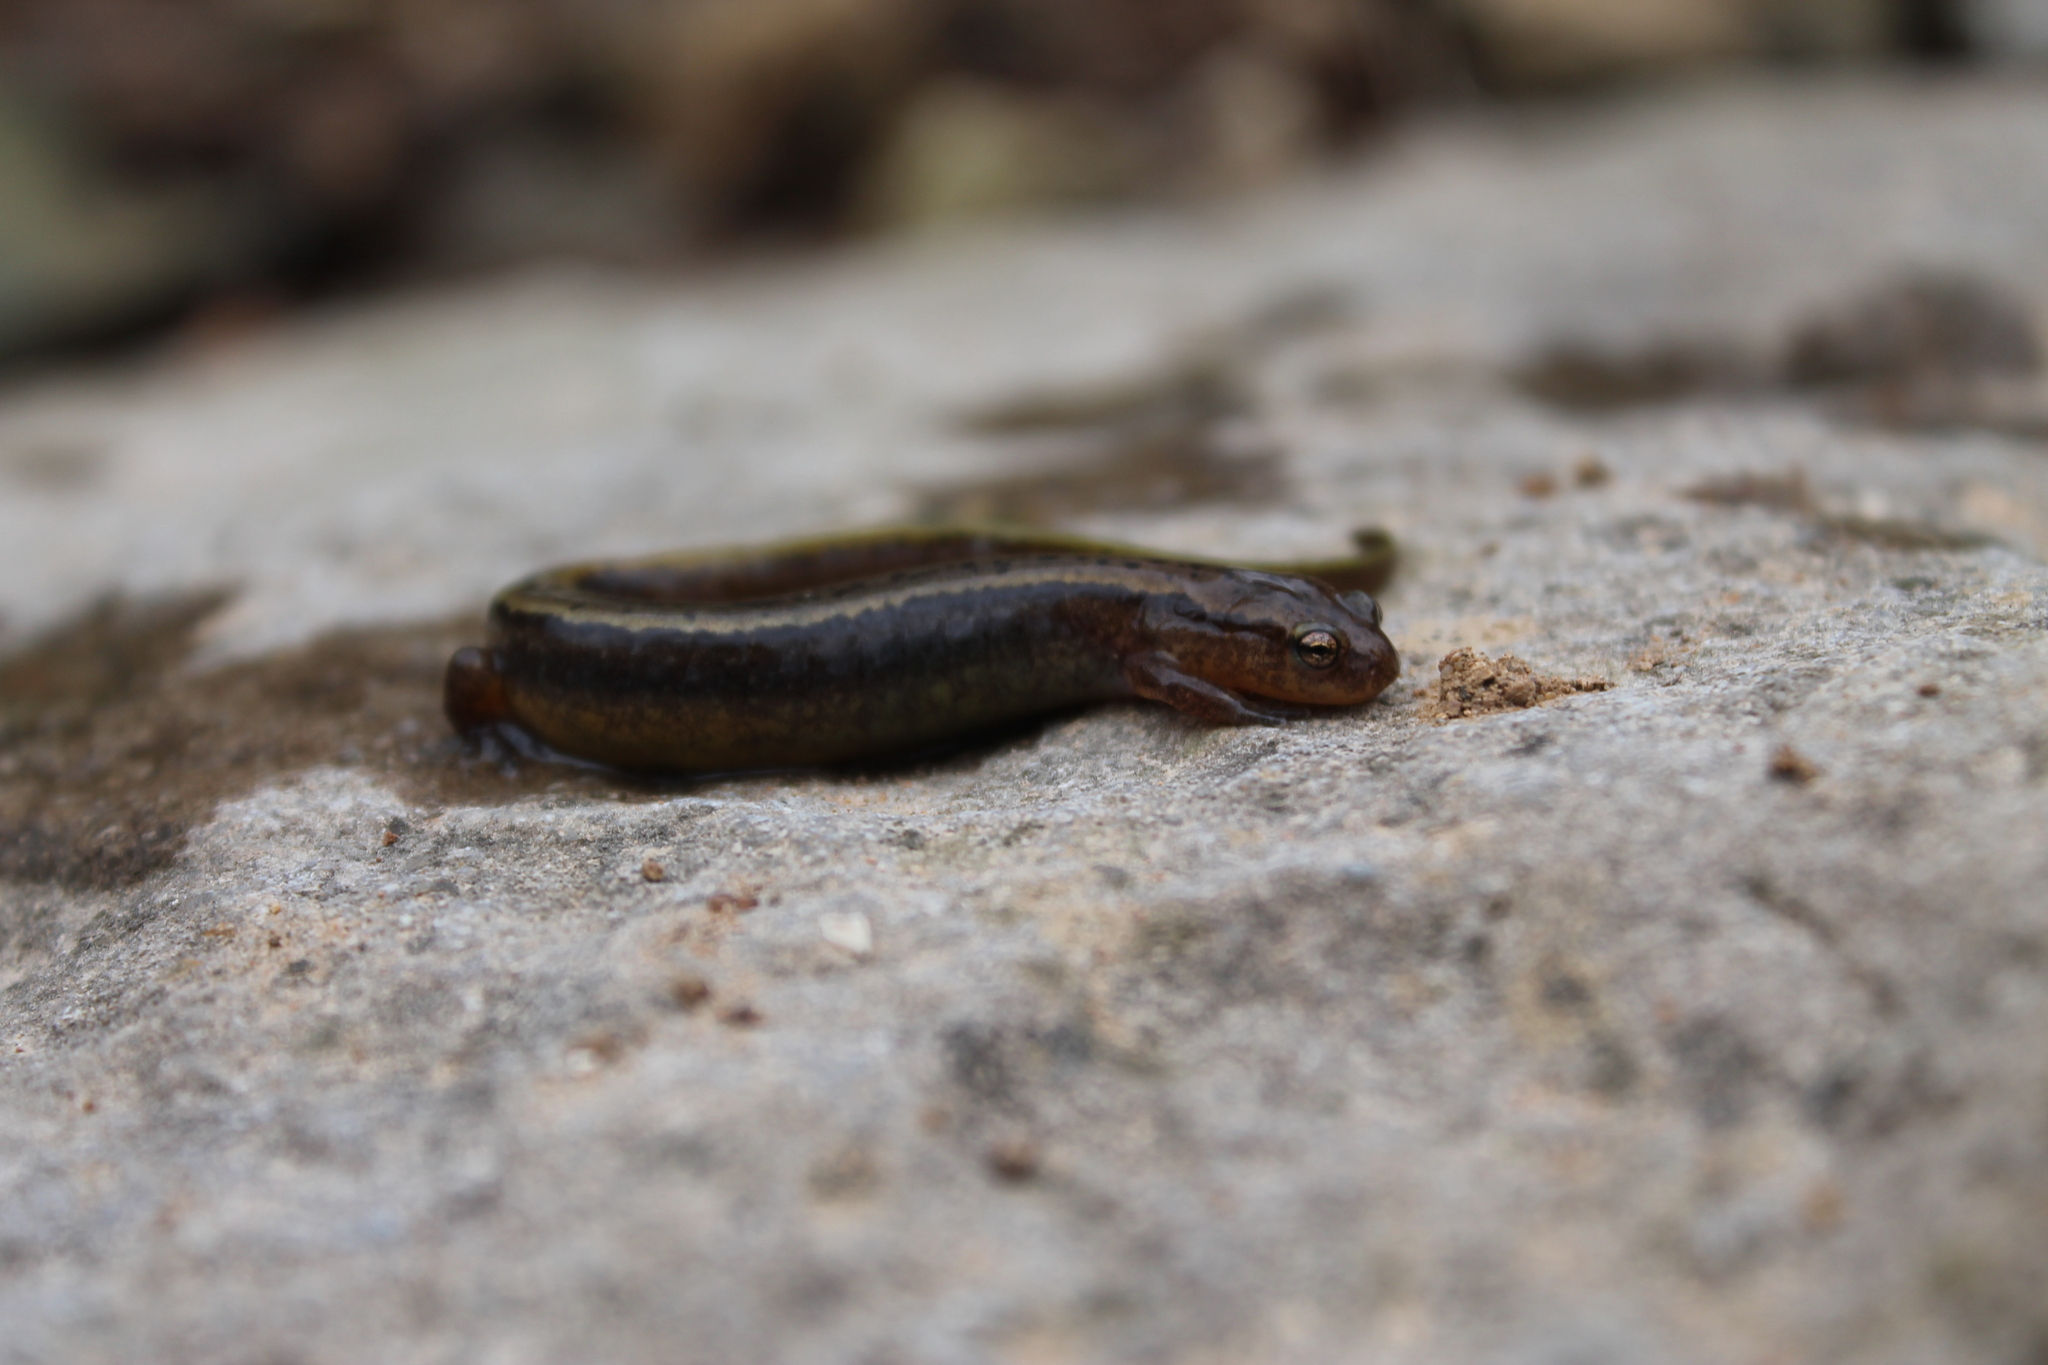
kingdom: Animalia
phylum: Chordata
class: Amphibia
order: Caudata
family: Plethodontidae
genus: Eurycea
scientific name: Eurycea cirrigera
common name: Southern two-lined salamander
